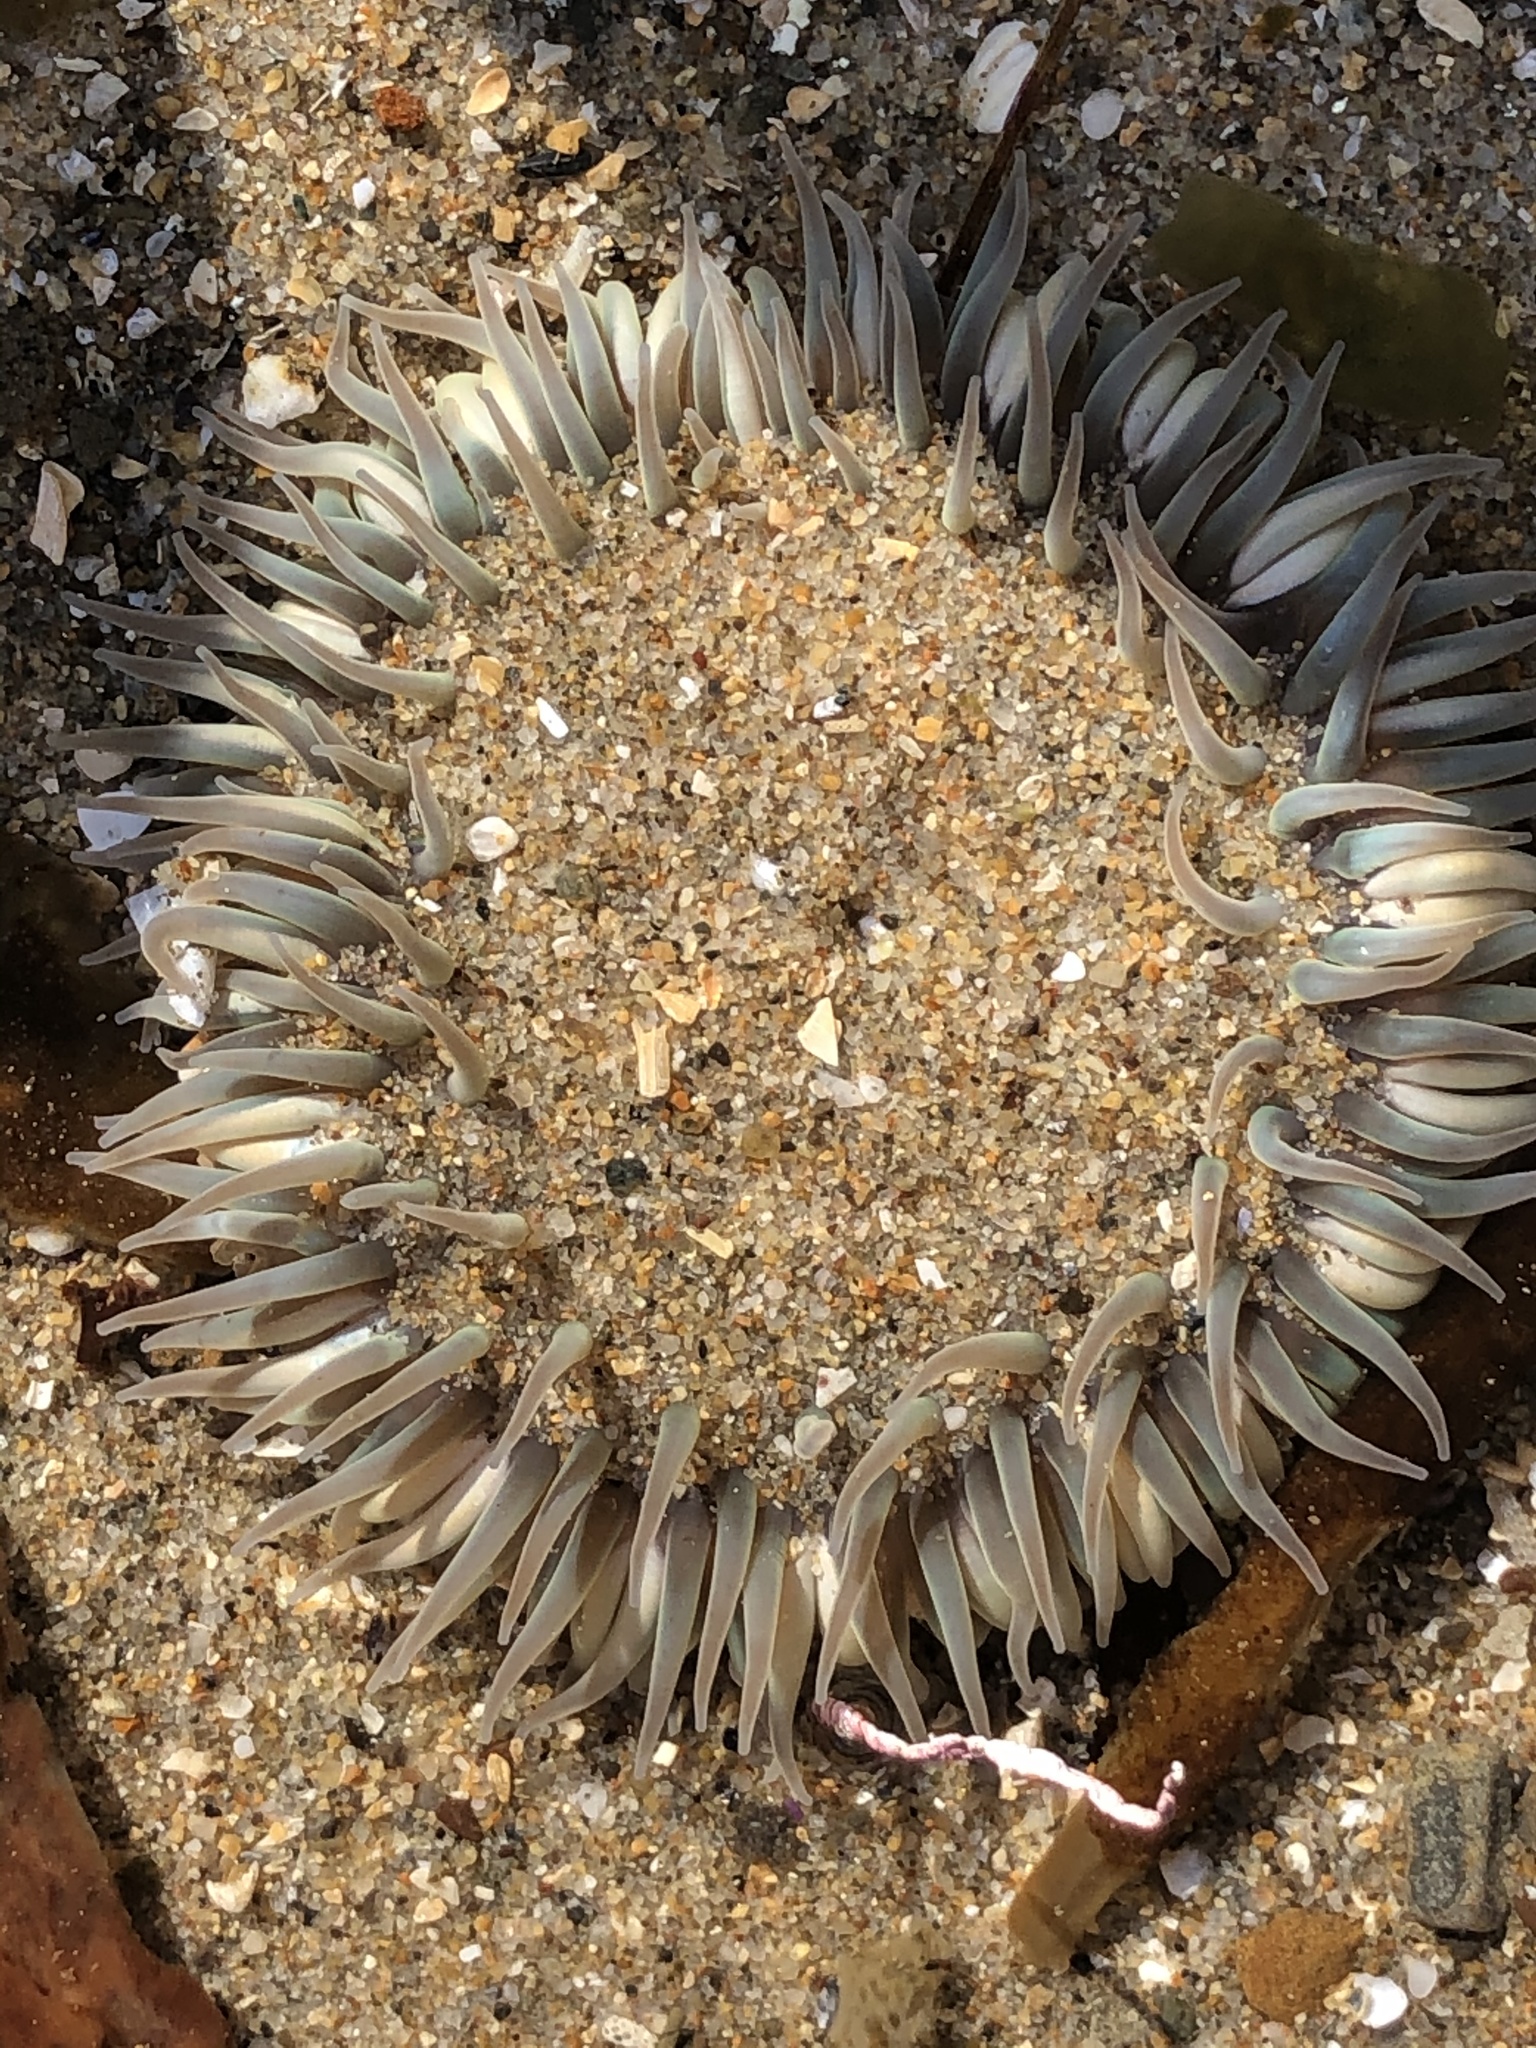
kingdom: Animalia
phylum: Cnidaria
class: Anthozoa
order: Actiniaria
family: Actiniidae
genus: Anthopleura
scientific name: Anthopleura sola
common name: Sun anemone
